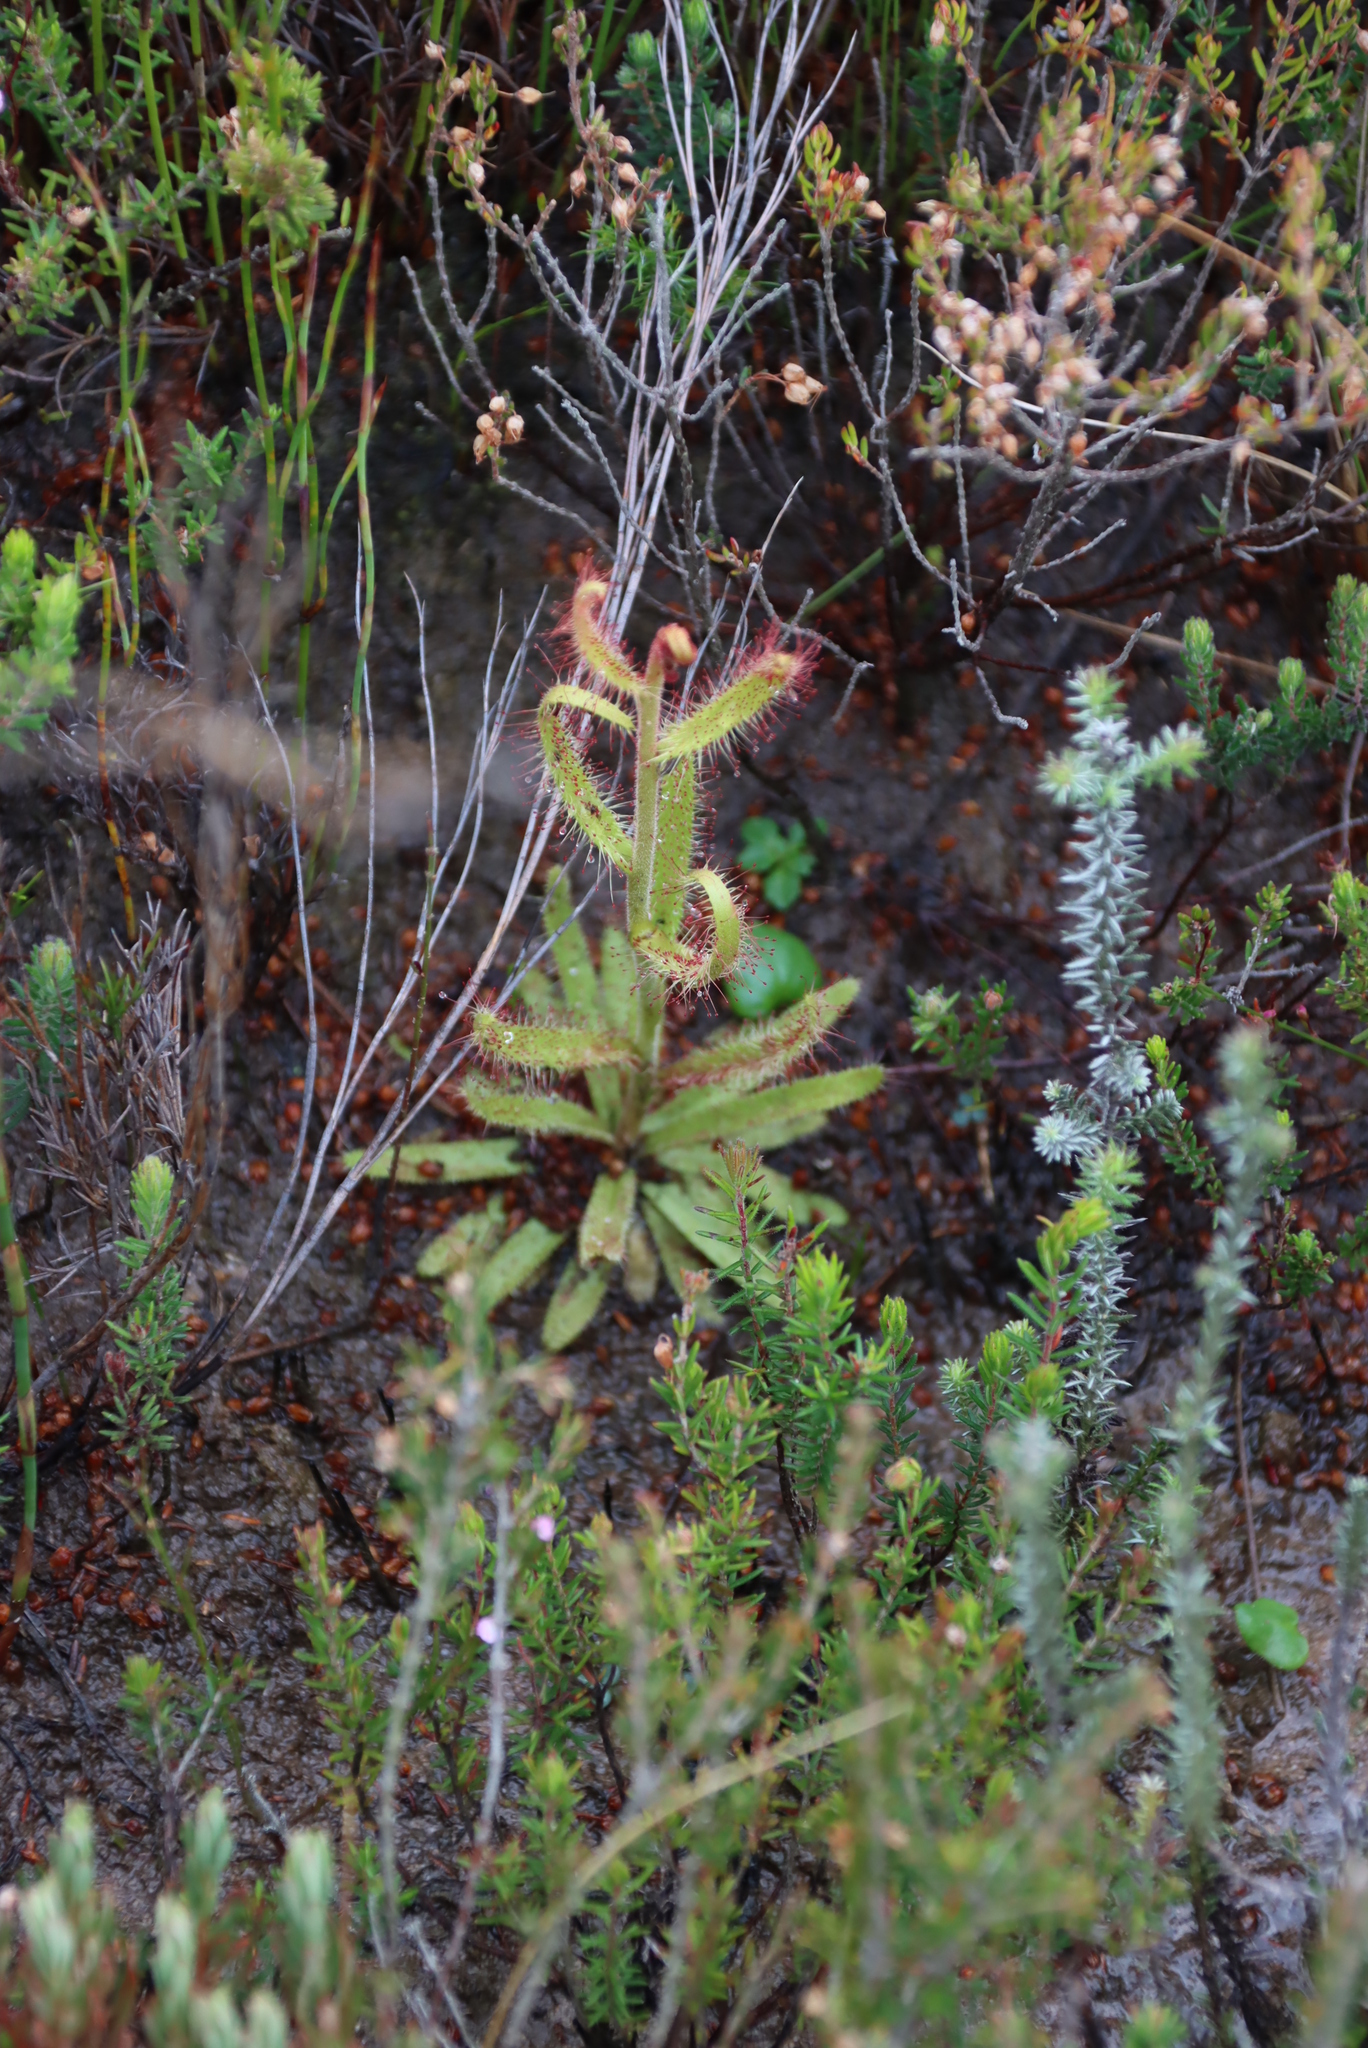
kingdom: Plantae
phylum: Tracheophyta
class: Magnoliopsida
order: Caryophyllales
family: Droseraceae
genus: Drosera
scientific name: Drosera cistiflora
